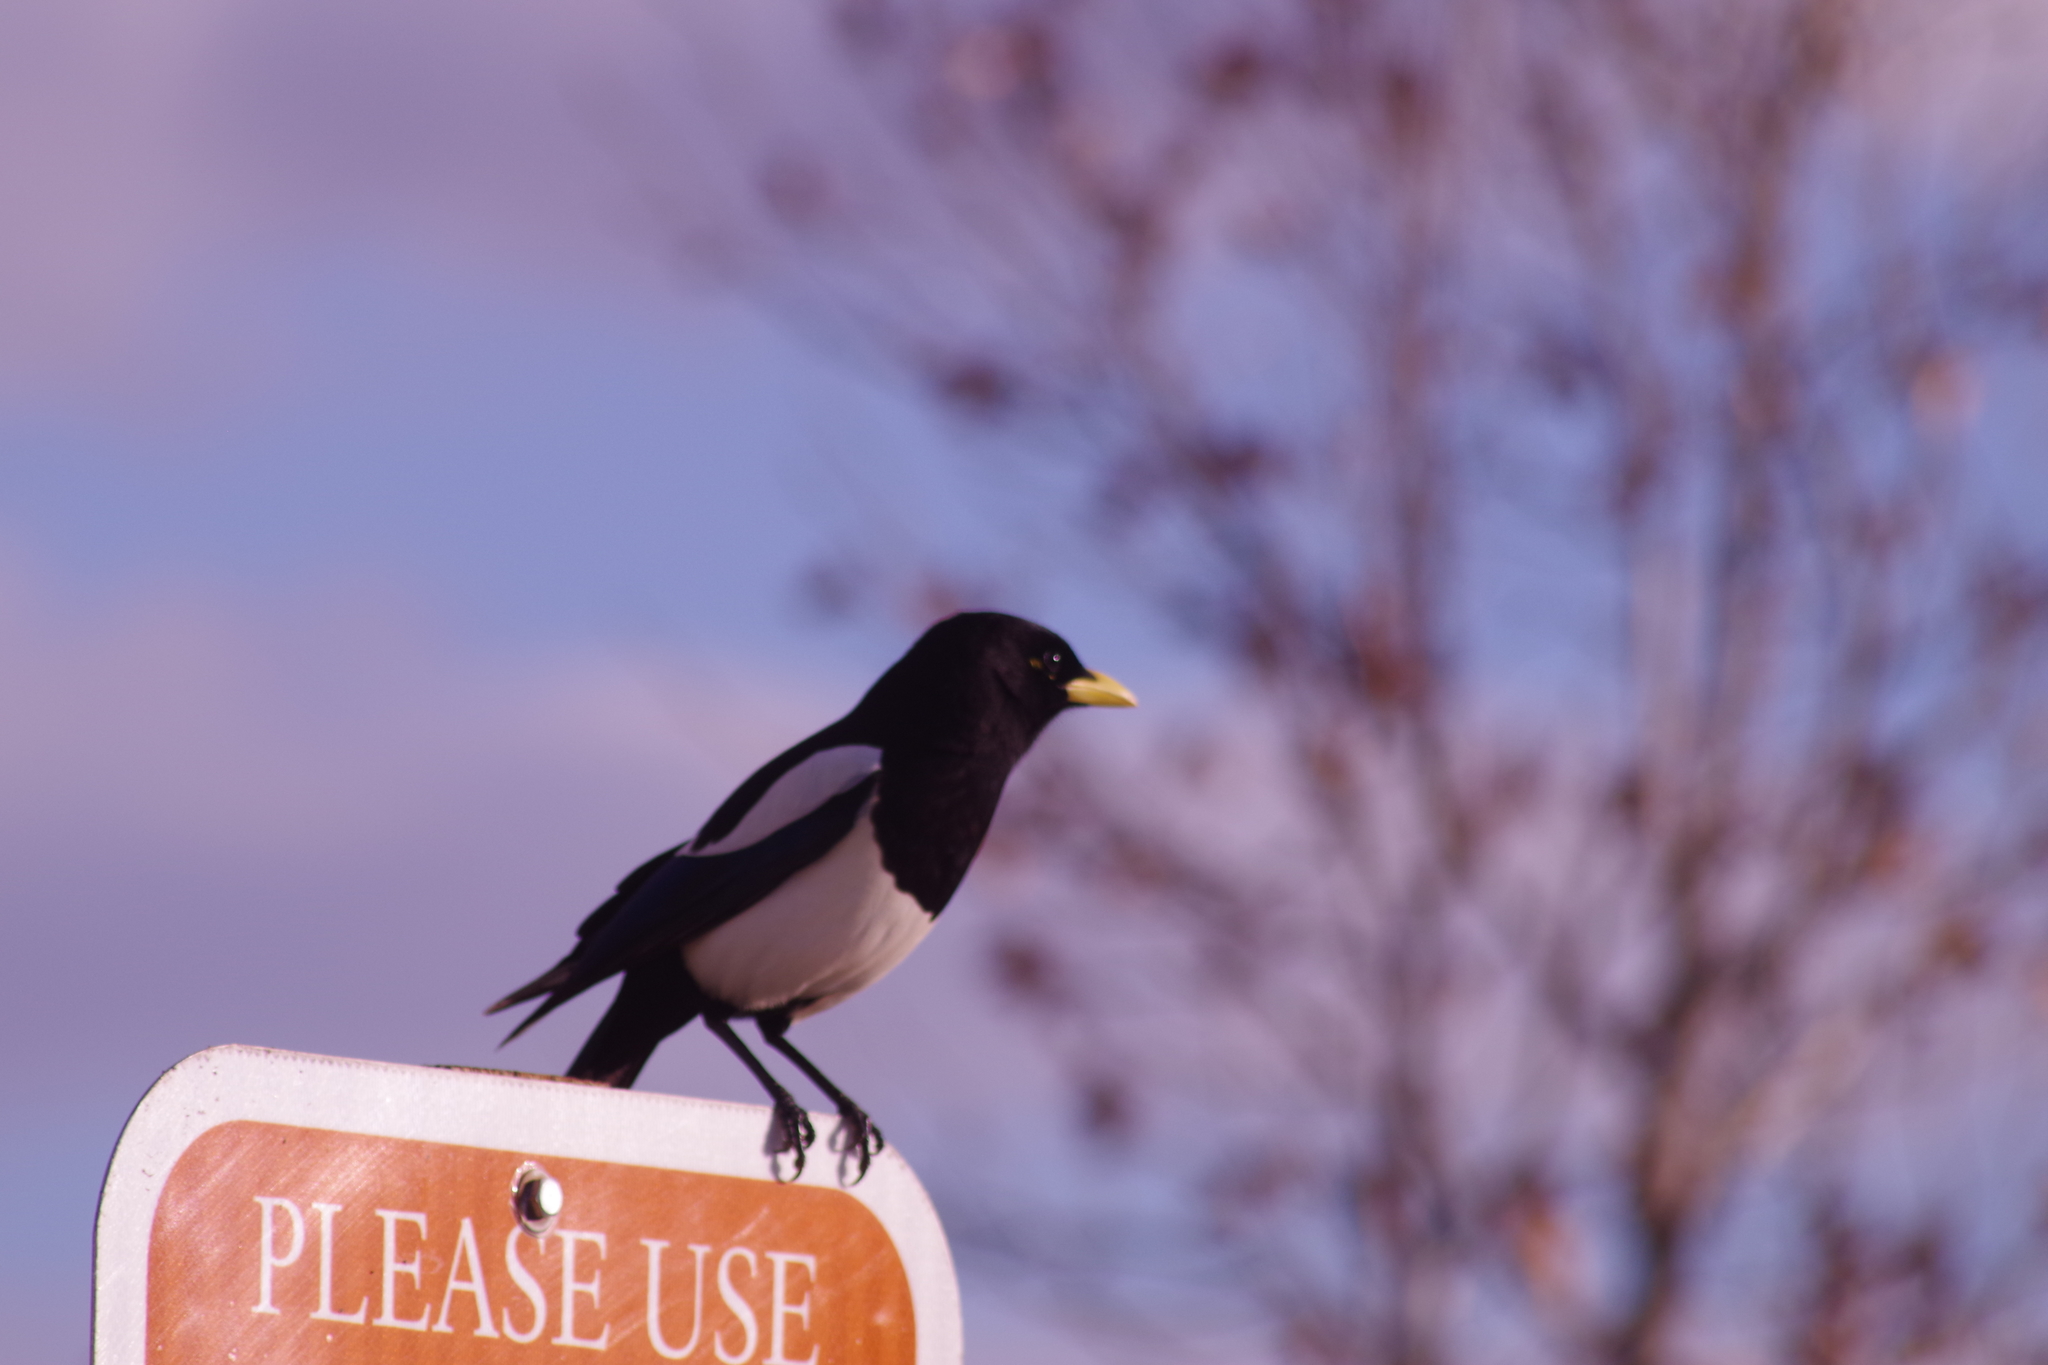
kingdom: Animalia
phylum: Chordata
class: Aves
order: Passeriformes
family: Corvidae
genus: Pica
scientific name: Pica nuttalli
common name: Yellow-billed magpie
